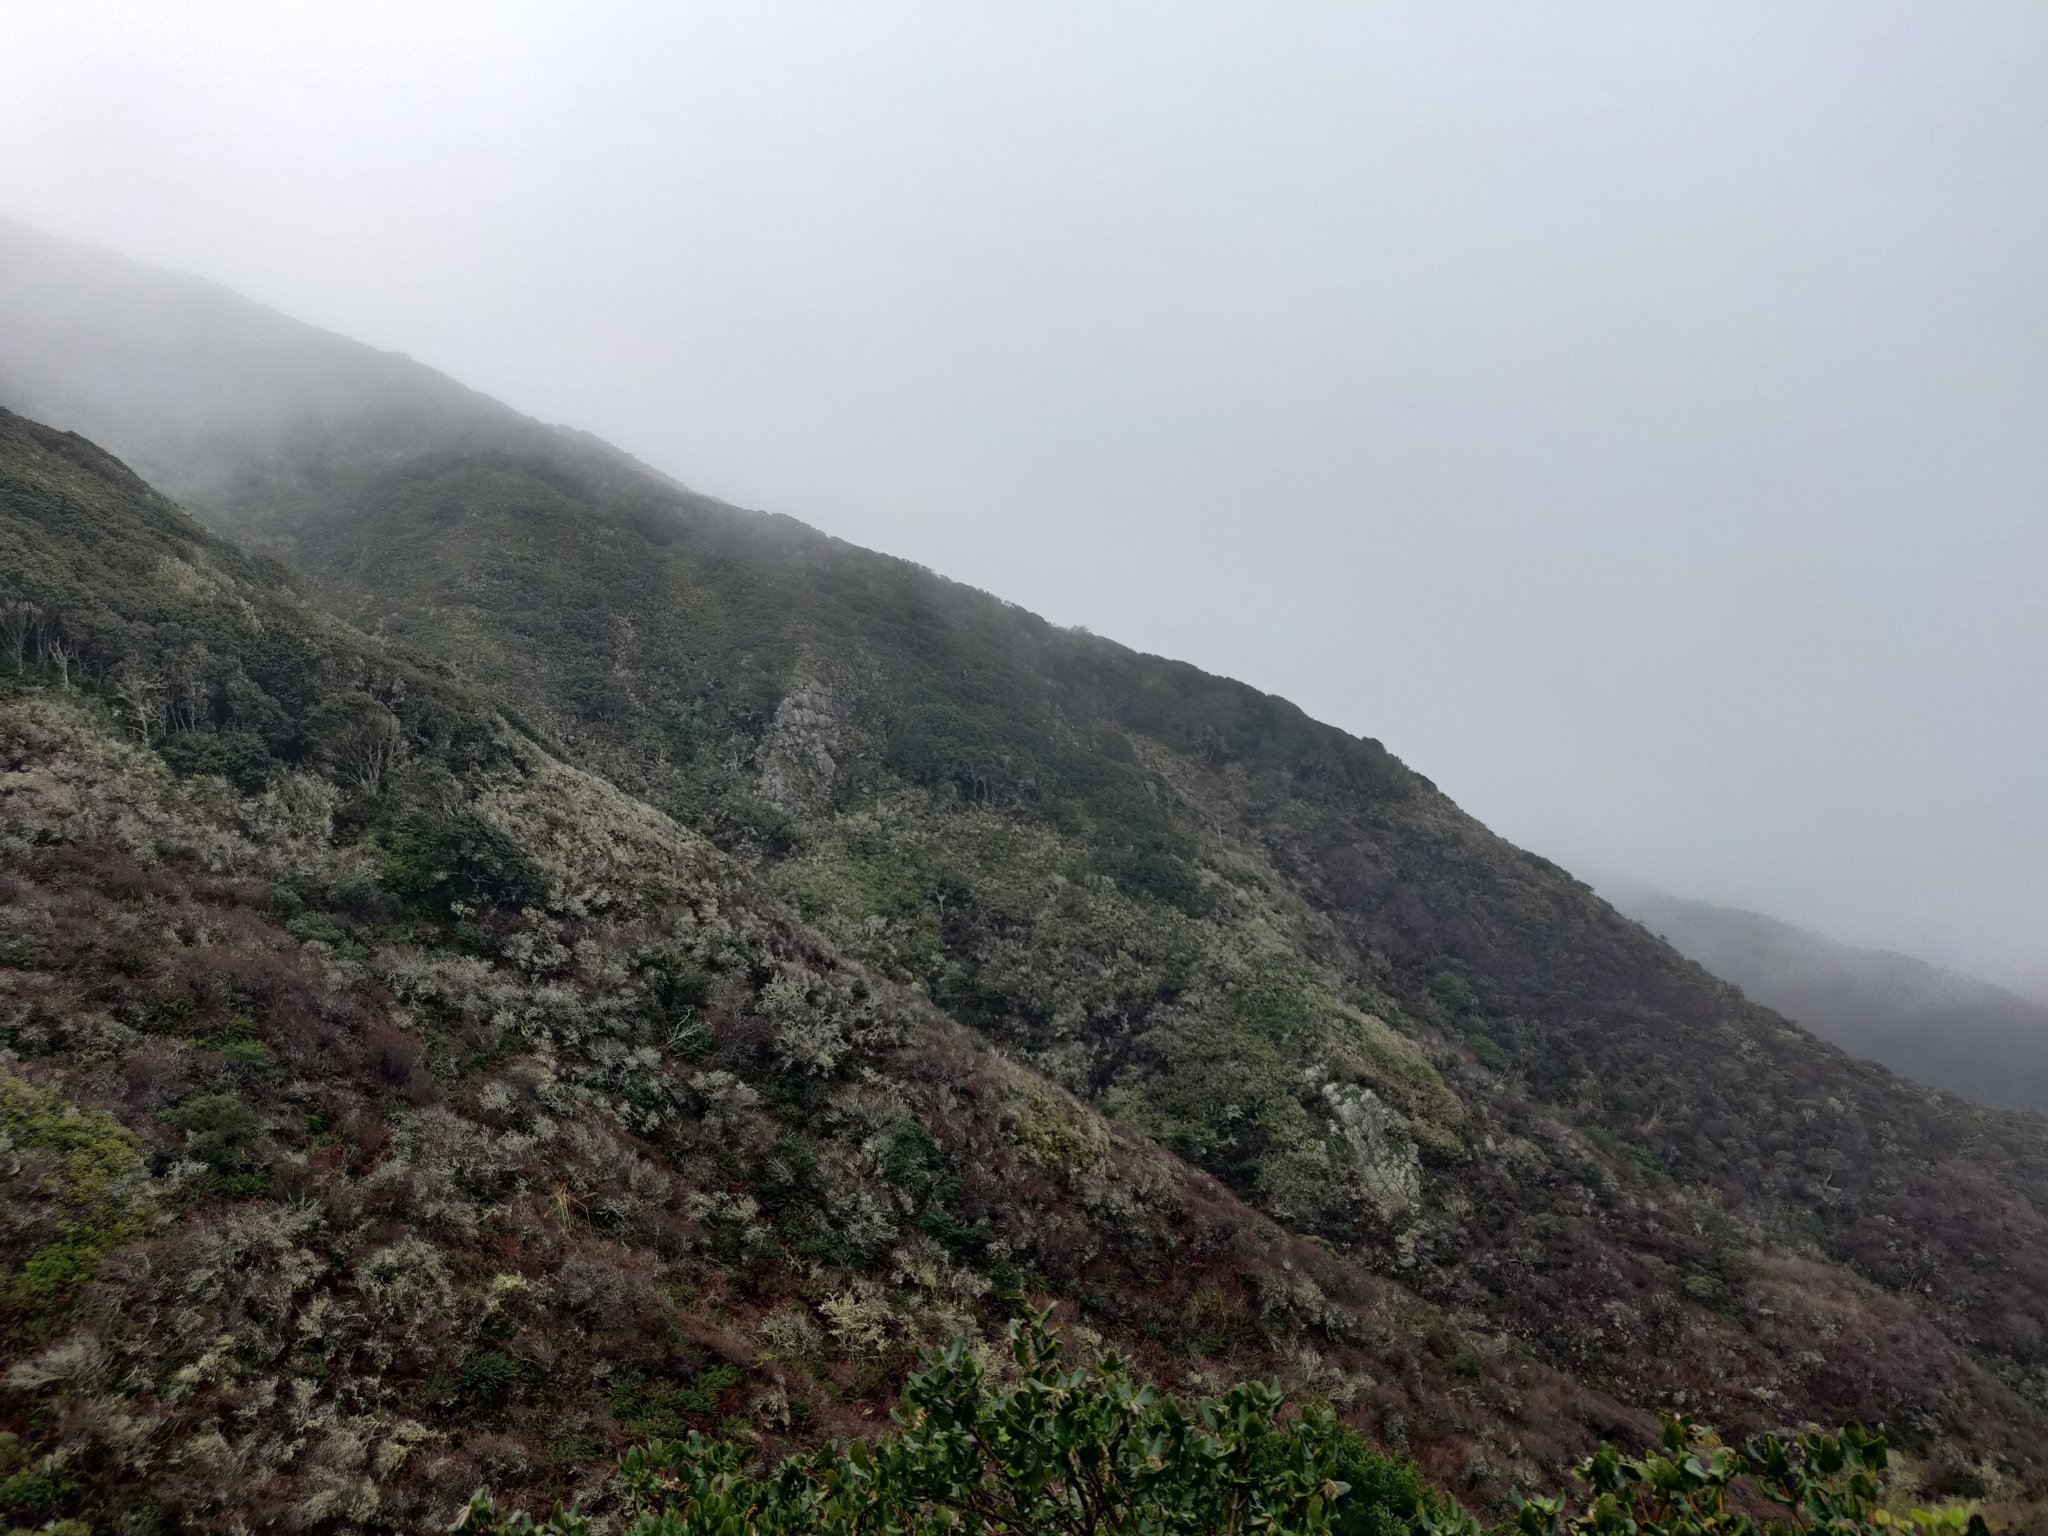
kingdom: Plantae
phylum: Tracheophyta
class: Magnoliopsida
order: Ericales
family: Ericaceae
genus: Arctostaphylos
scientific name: Arctostaphylos montaraensis
